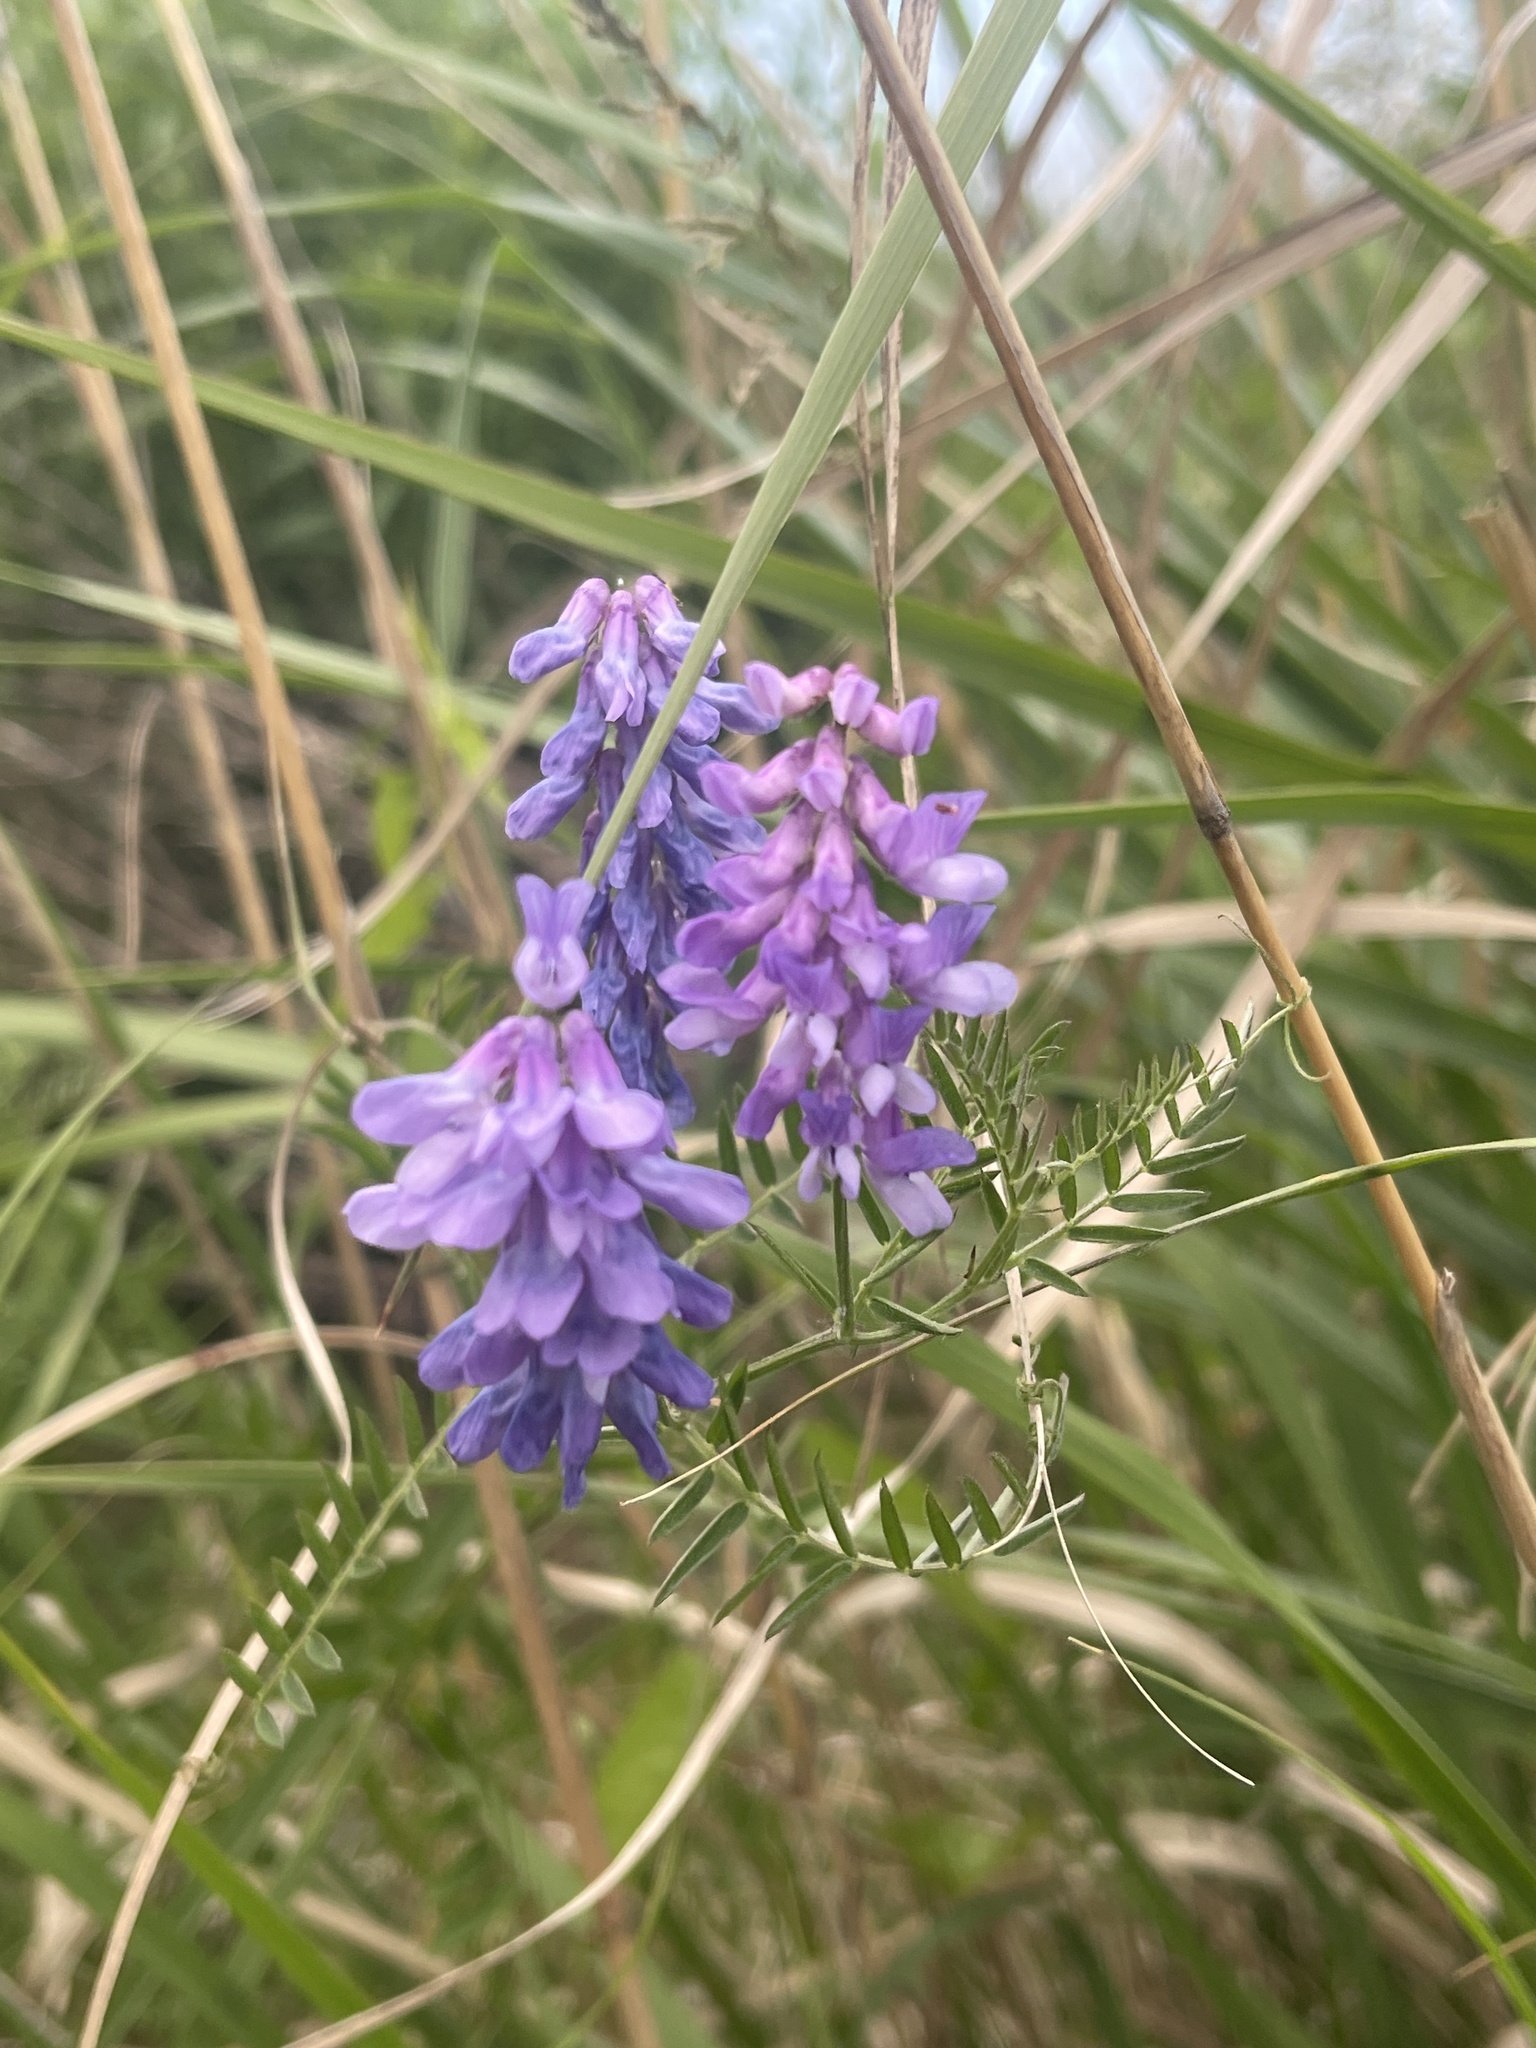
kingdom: Plantae
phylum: Tracheophyta
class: Magnoliopsida
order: Fabales
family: Fabaceae
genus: Vicia
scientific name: Vicia cracca
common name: Bird vetch
